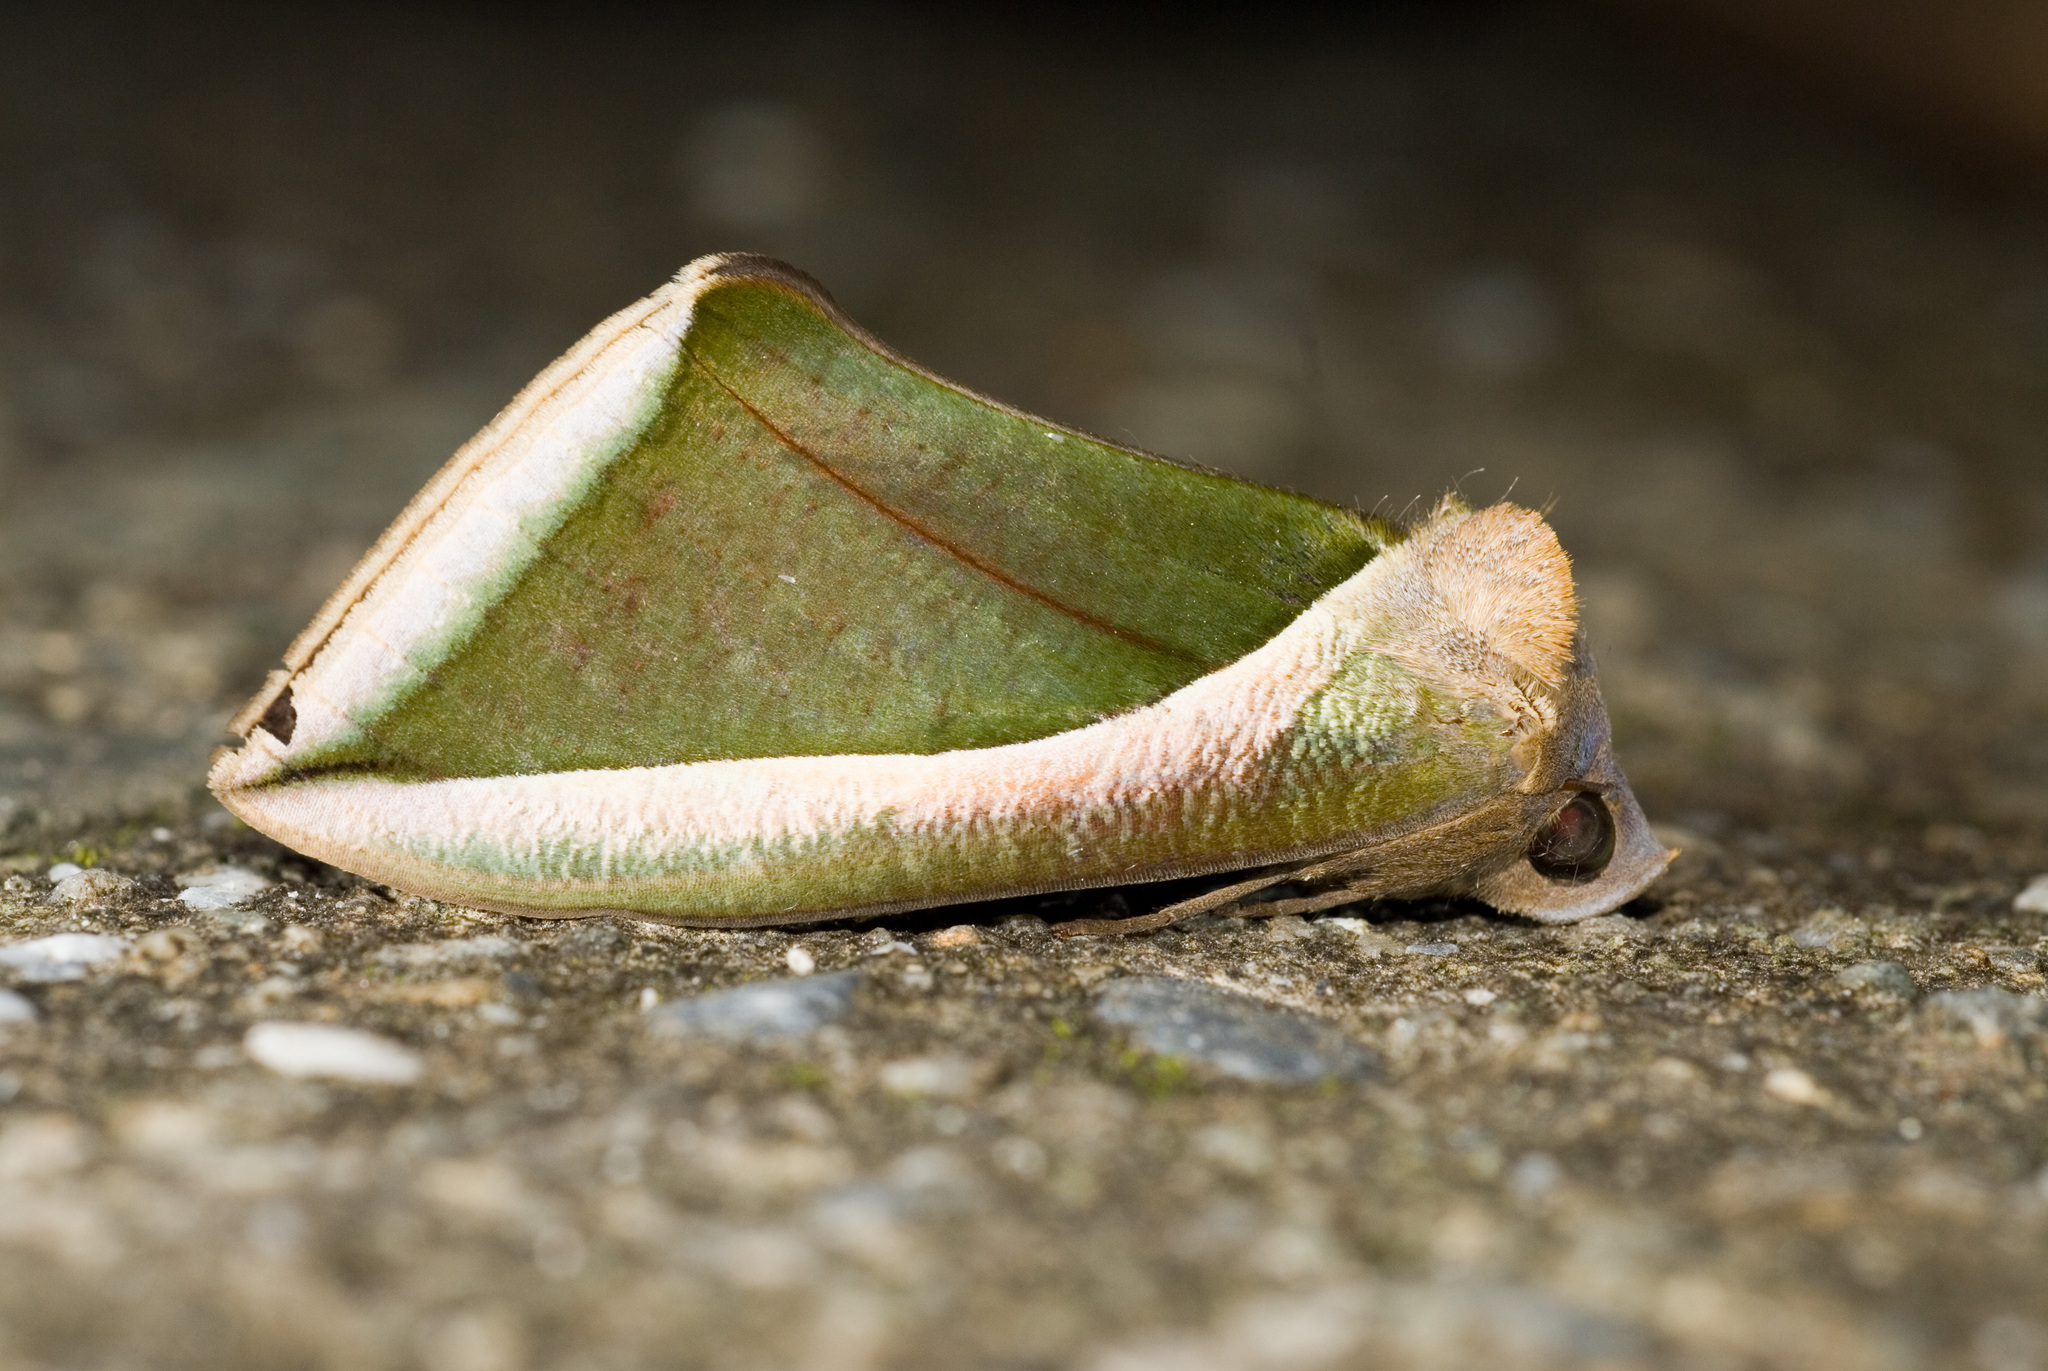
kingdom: Animalia
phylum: Arthropoda
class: Insecta
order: Lepidoptera
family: Erebidae
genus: Eudocima
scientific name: Eudocima salaminia
